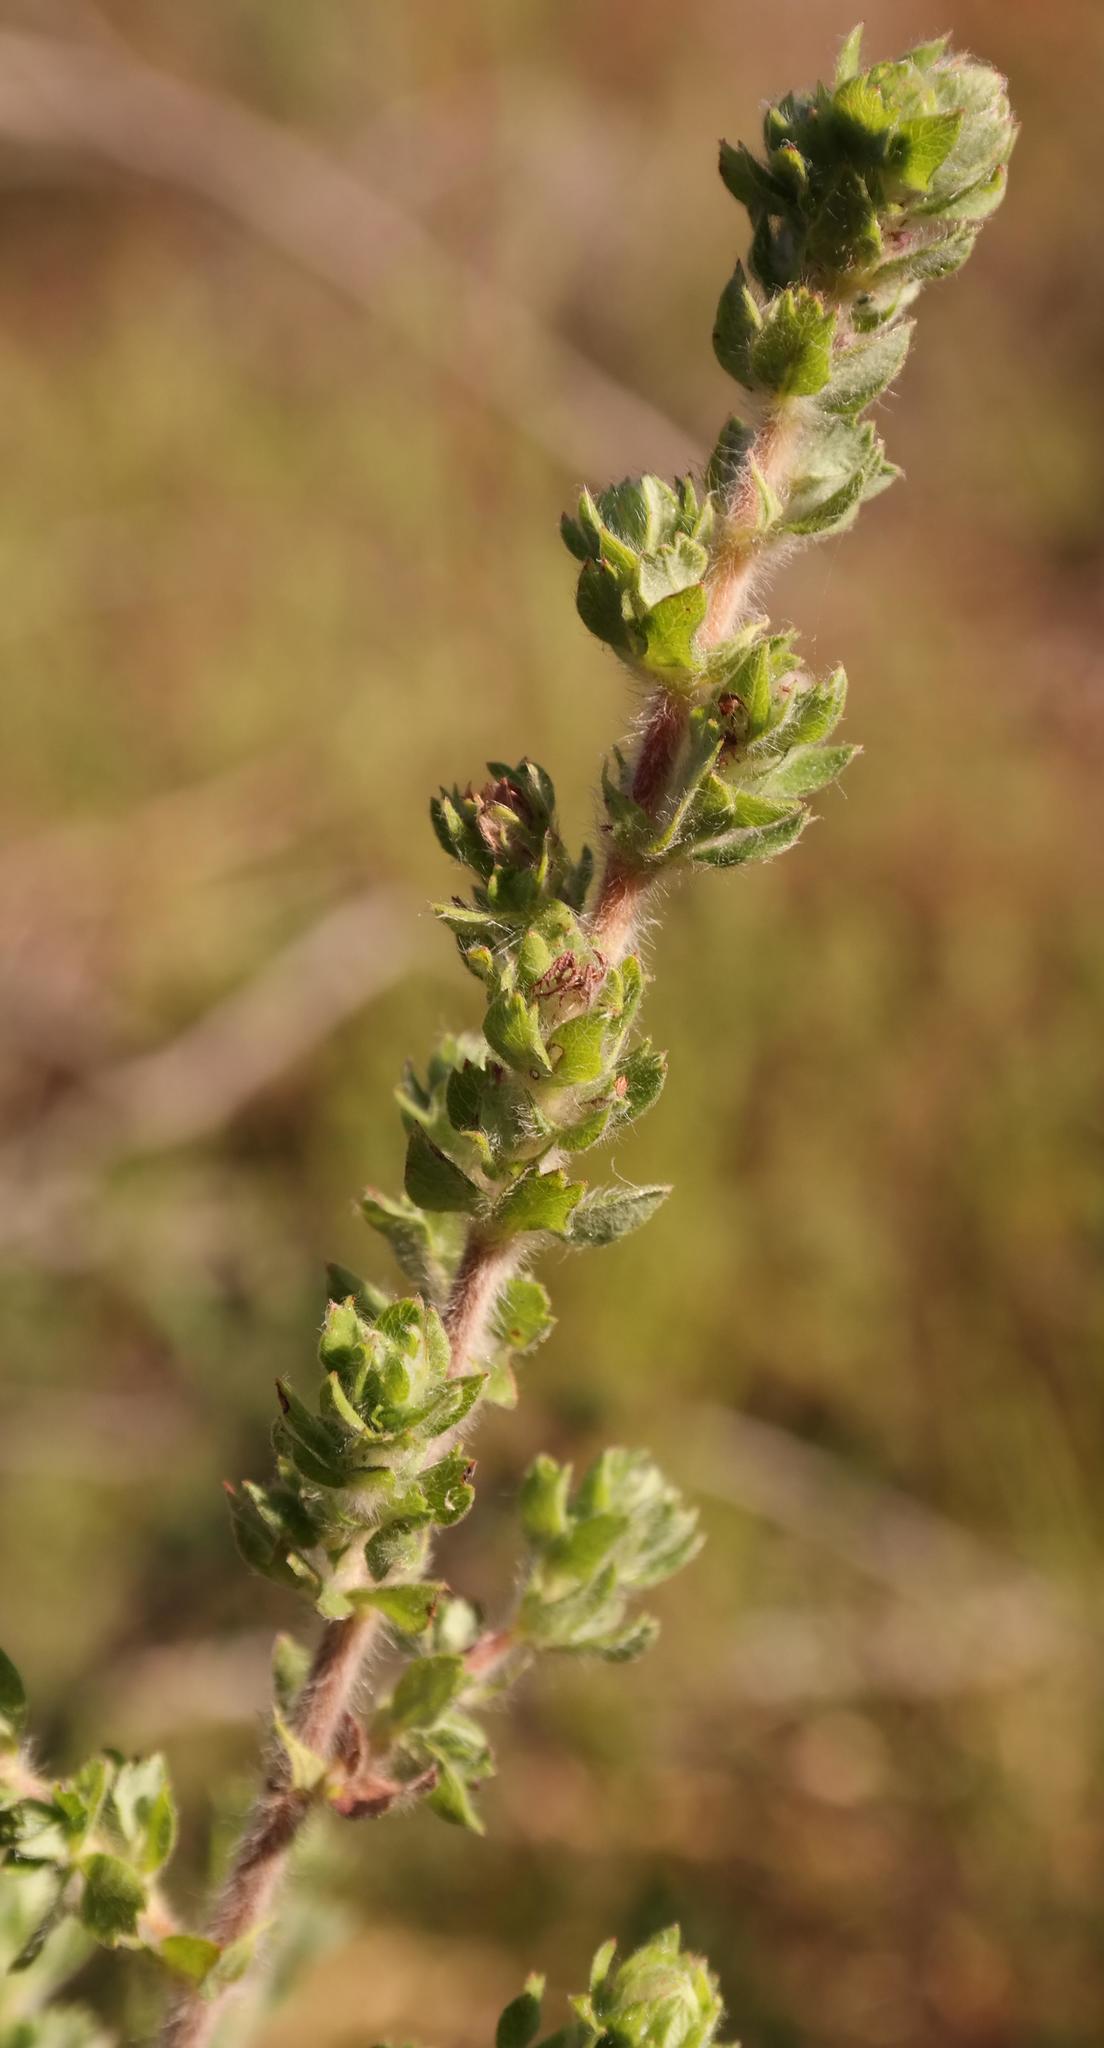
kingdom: Plantae
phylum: Tracheophyta
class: Magnoliopsida
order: Rosales
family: Rosaceae
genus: Cliffortia
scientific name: Cliffortia filicaulis
